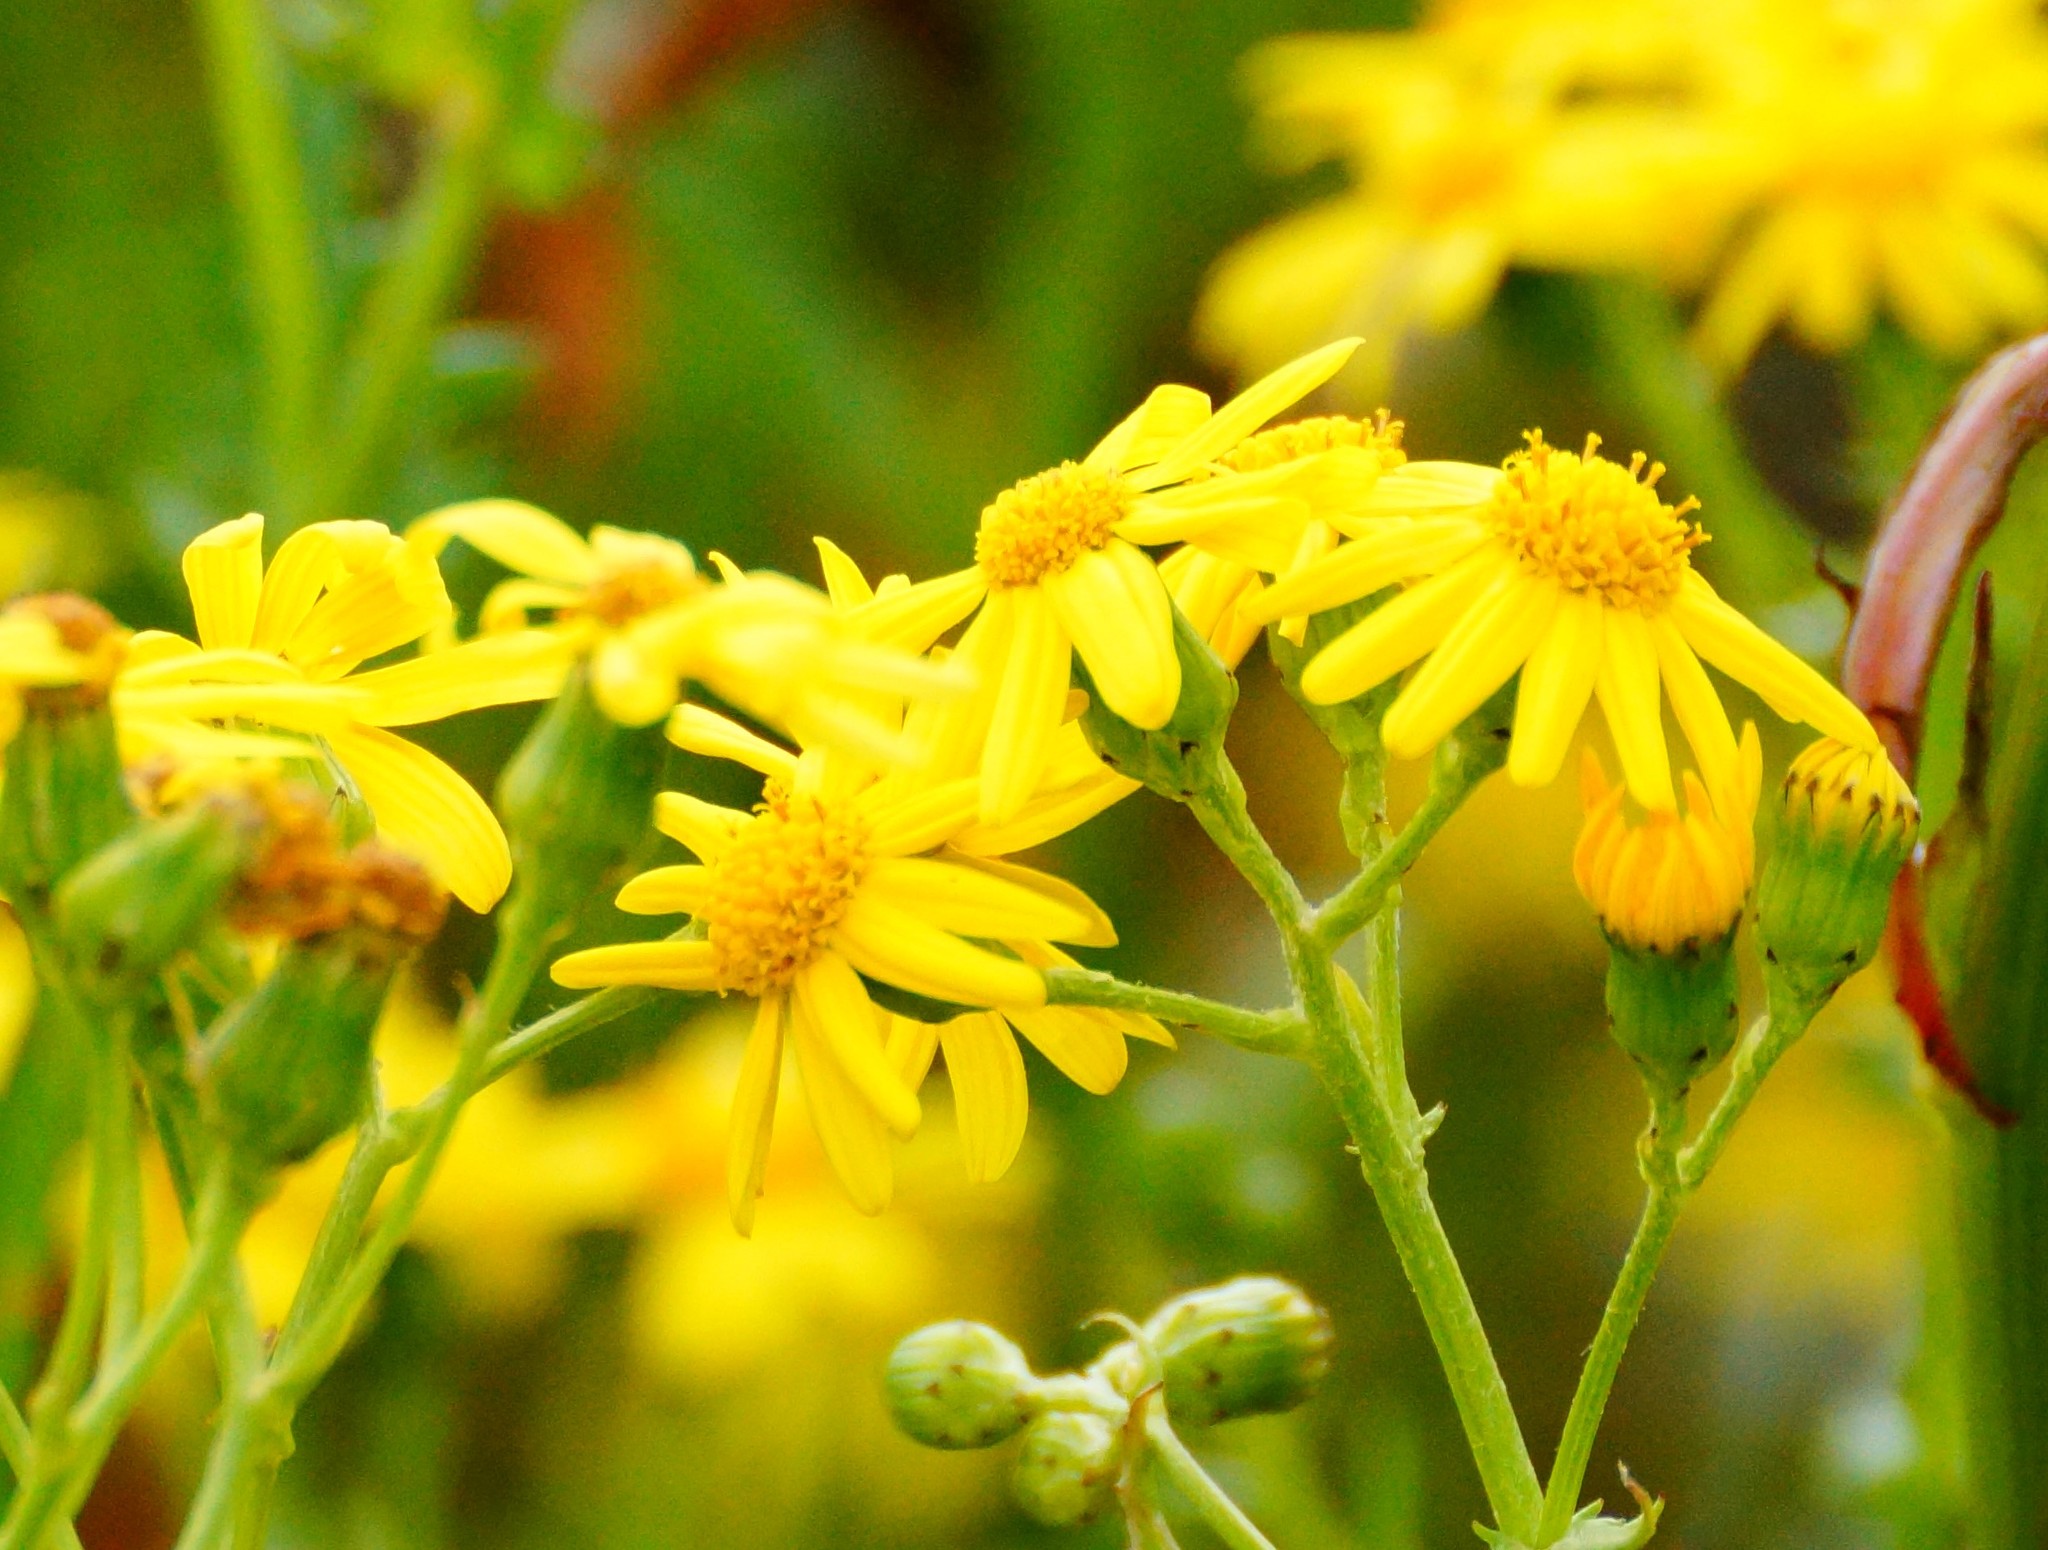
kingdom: Plantae
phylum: Tracheophyta
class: Magnoliopsida
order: Asterales
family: Asteraceae
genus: Senecio
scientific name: Senecio pinnatifolius
